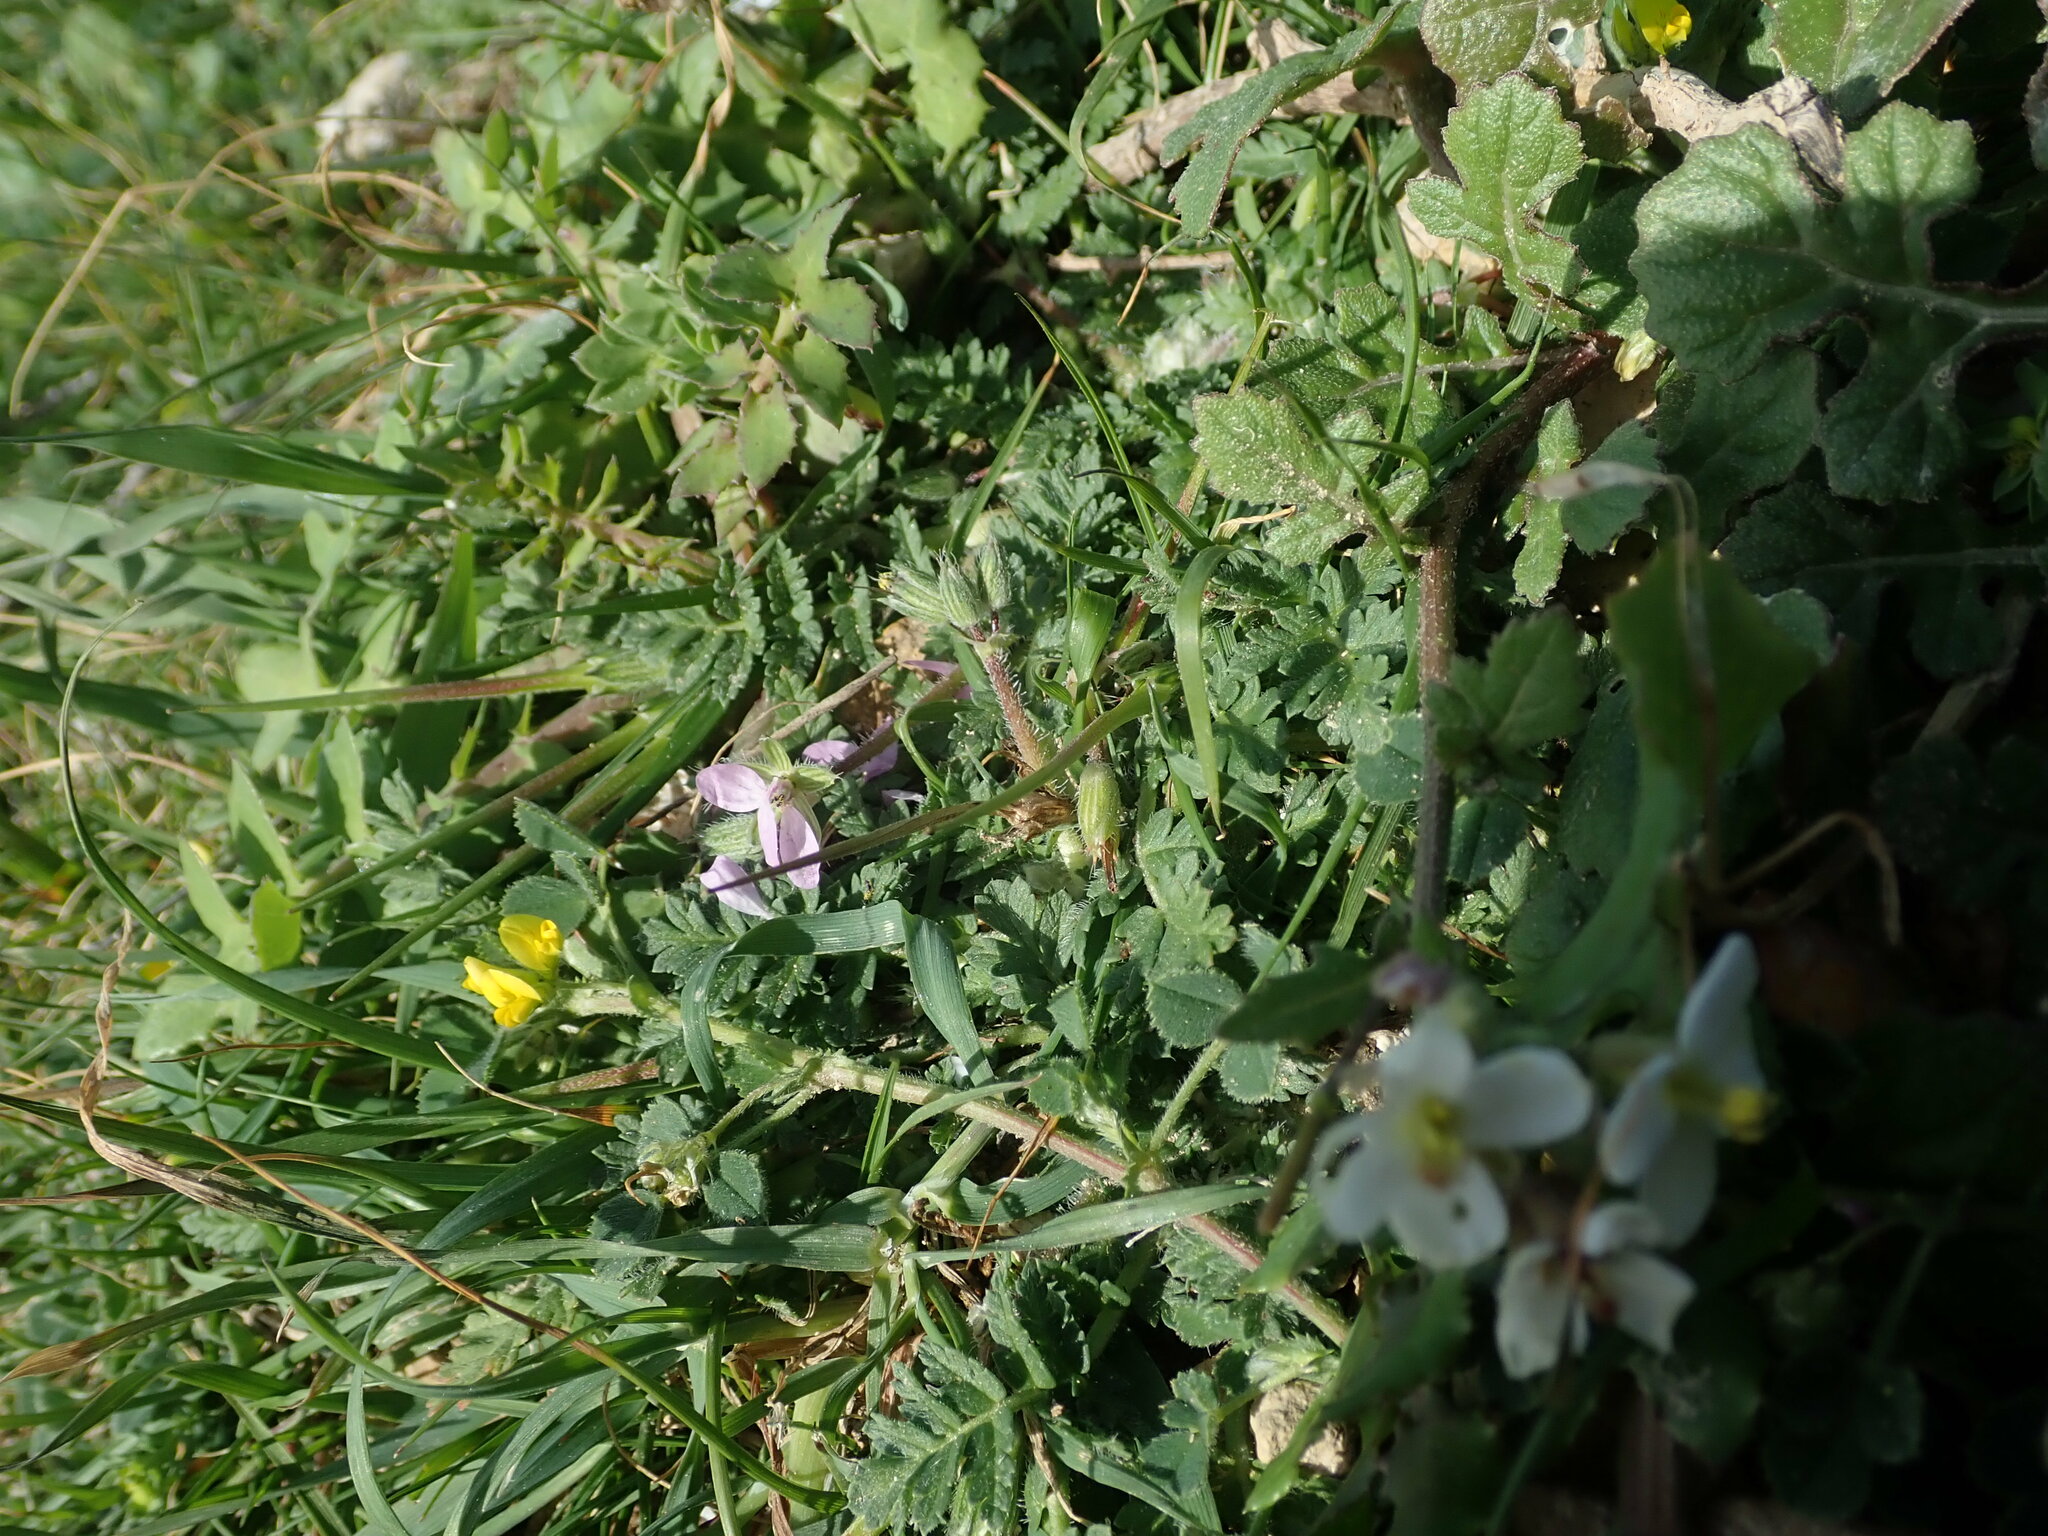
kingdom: Plantae
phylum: Tracheophyta
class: Magnoliopsida
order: Geraniales
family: Geraniaceae
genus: Erodium
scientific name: Erodium cicutarium
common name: Common stork's-bill
